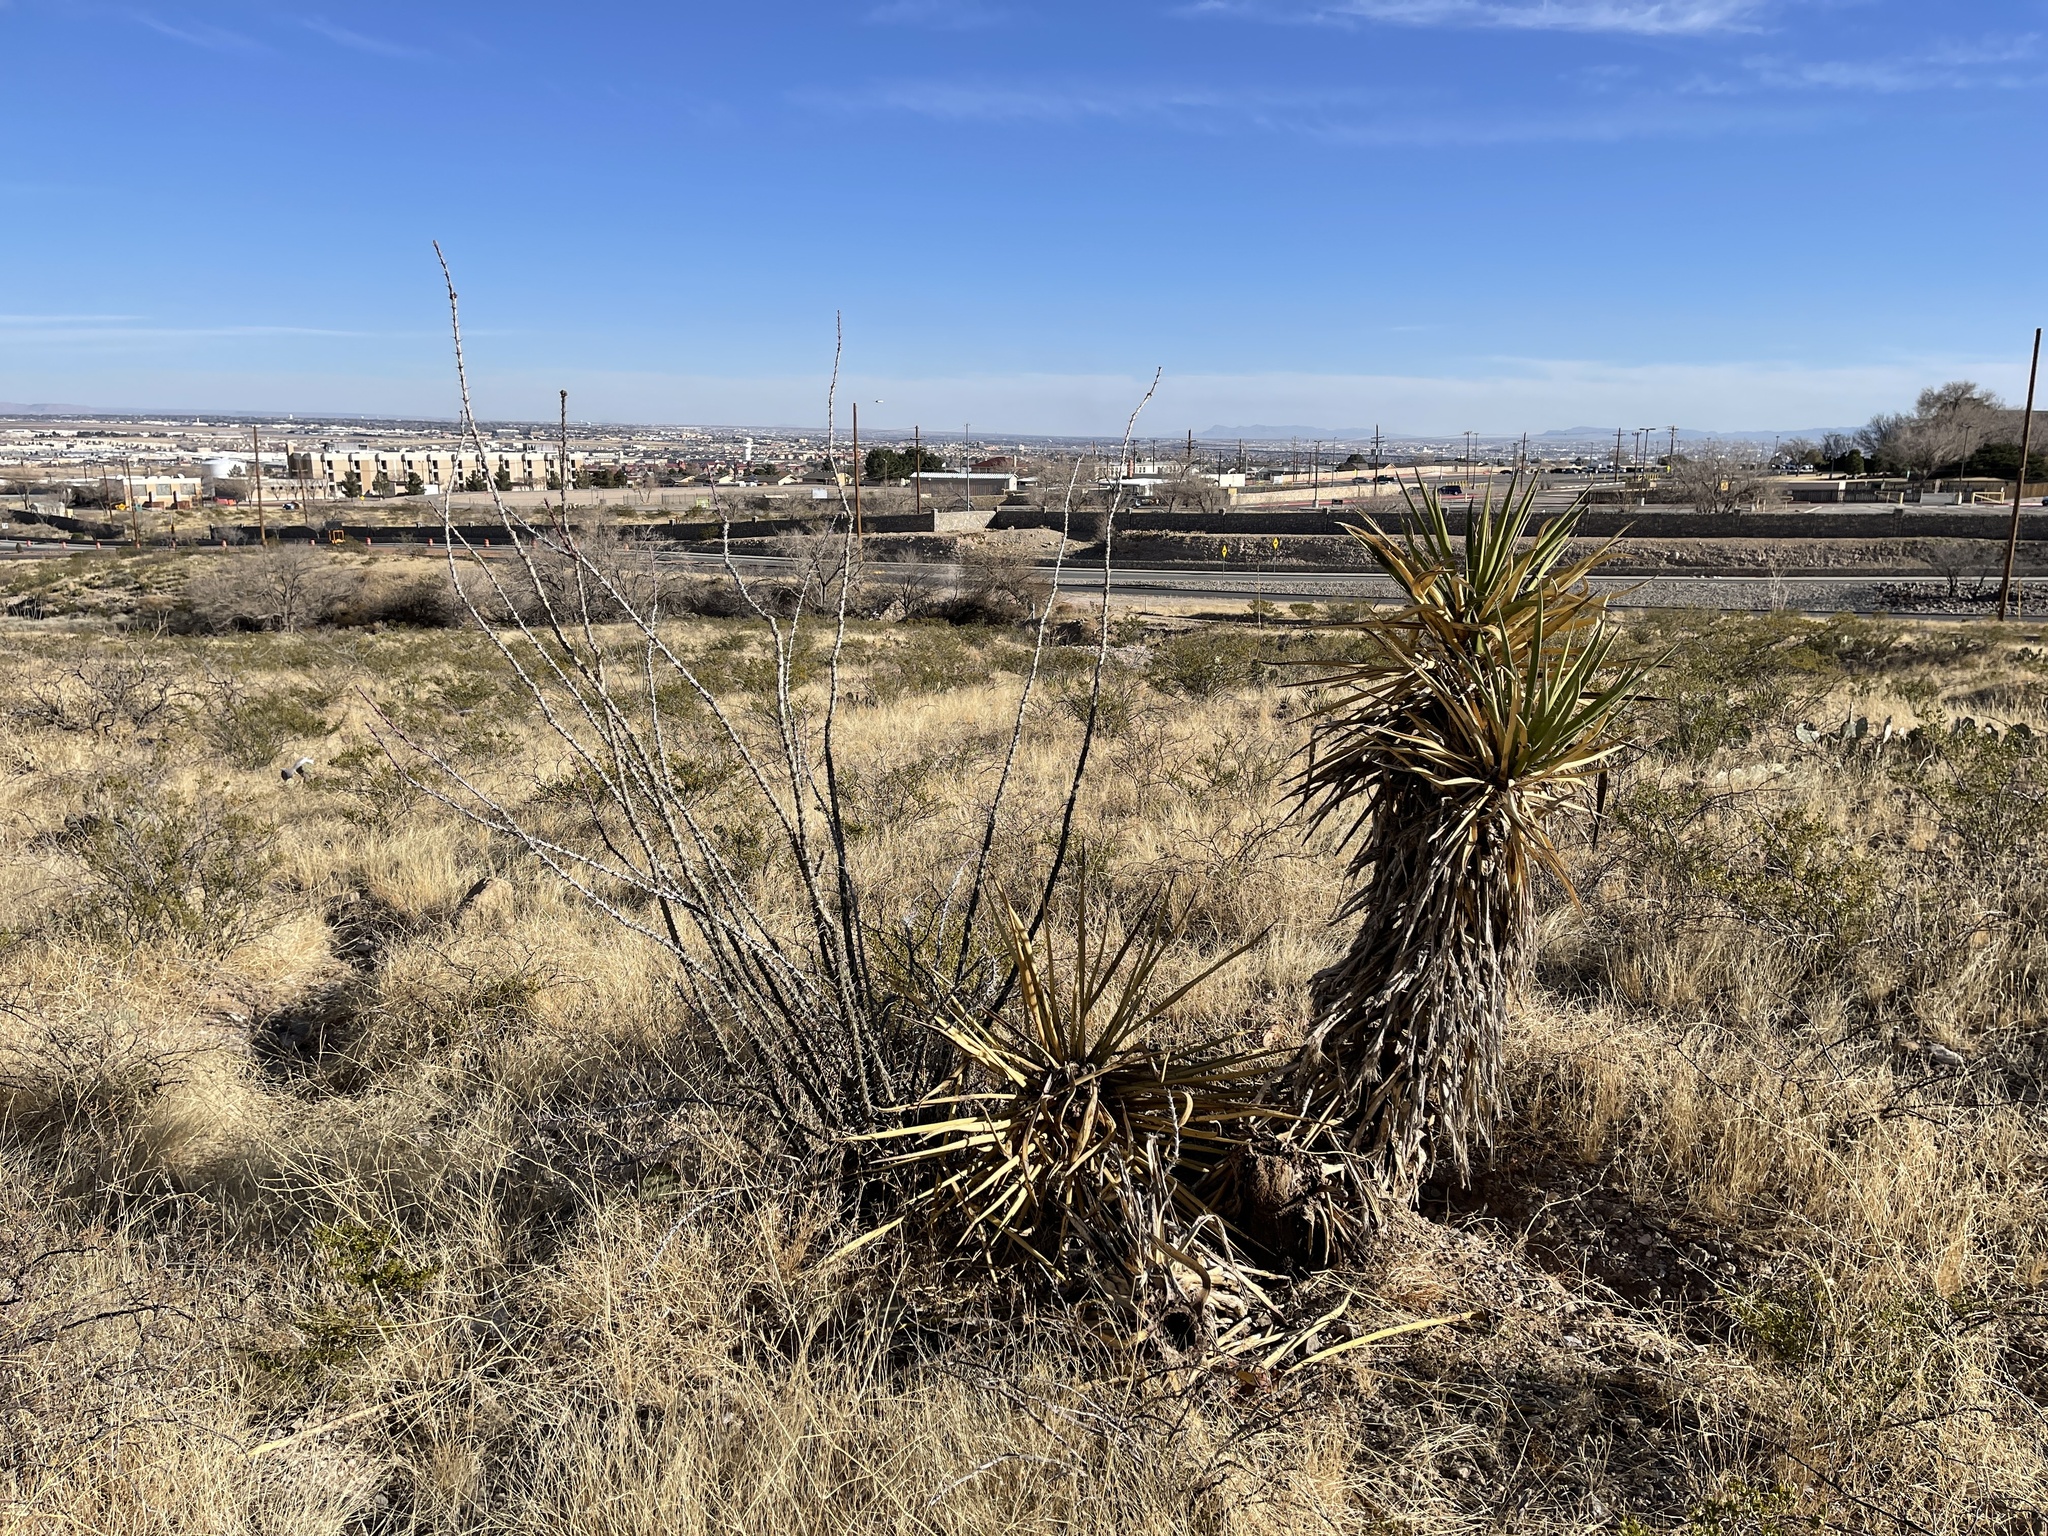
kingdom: Plantae
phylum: Tracheophyta
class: Liliopsida
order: Asparagales
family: Asparagaceae
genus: Yucca
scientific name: Yucca treculiana
